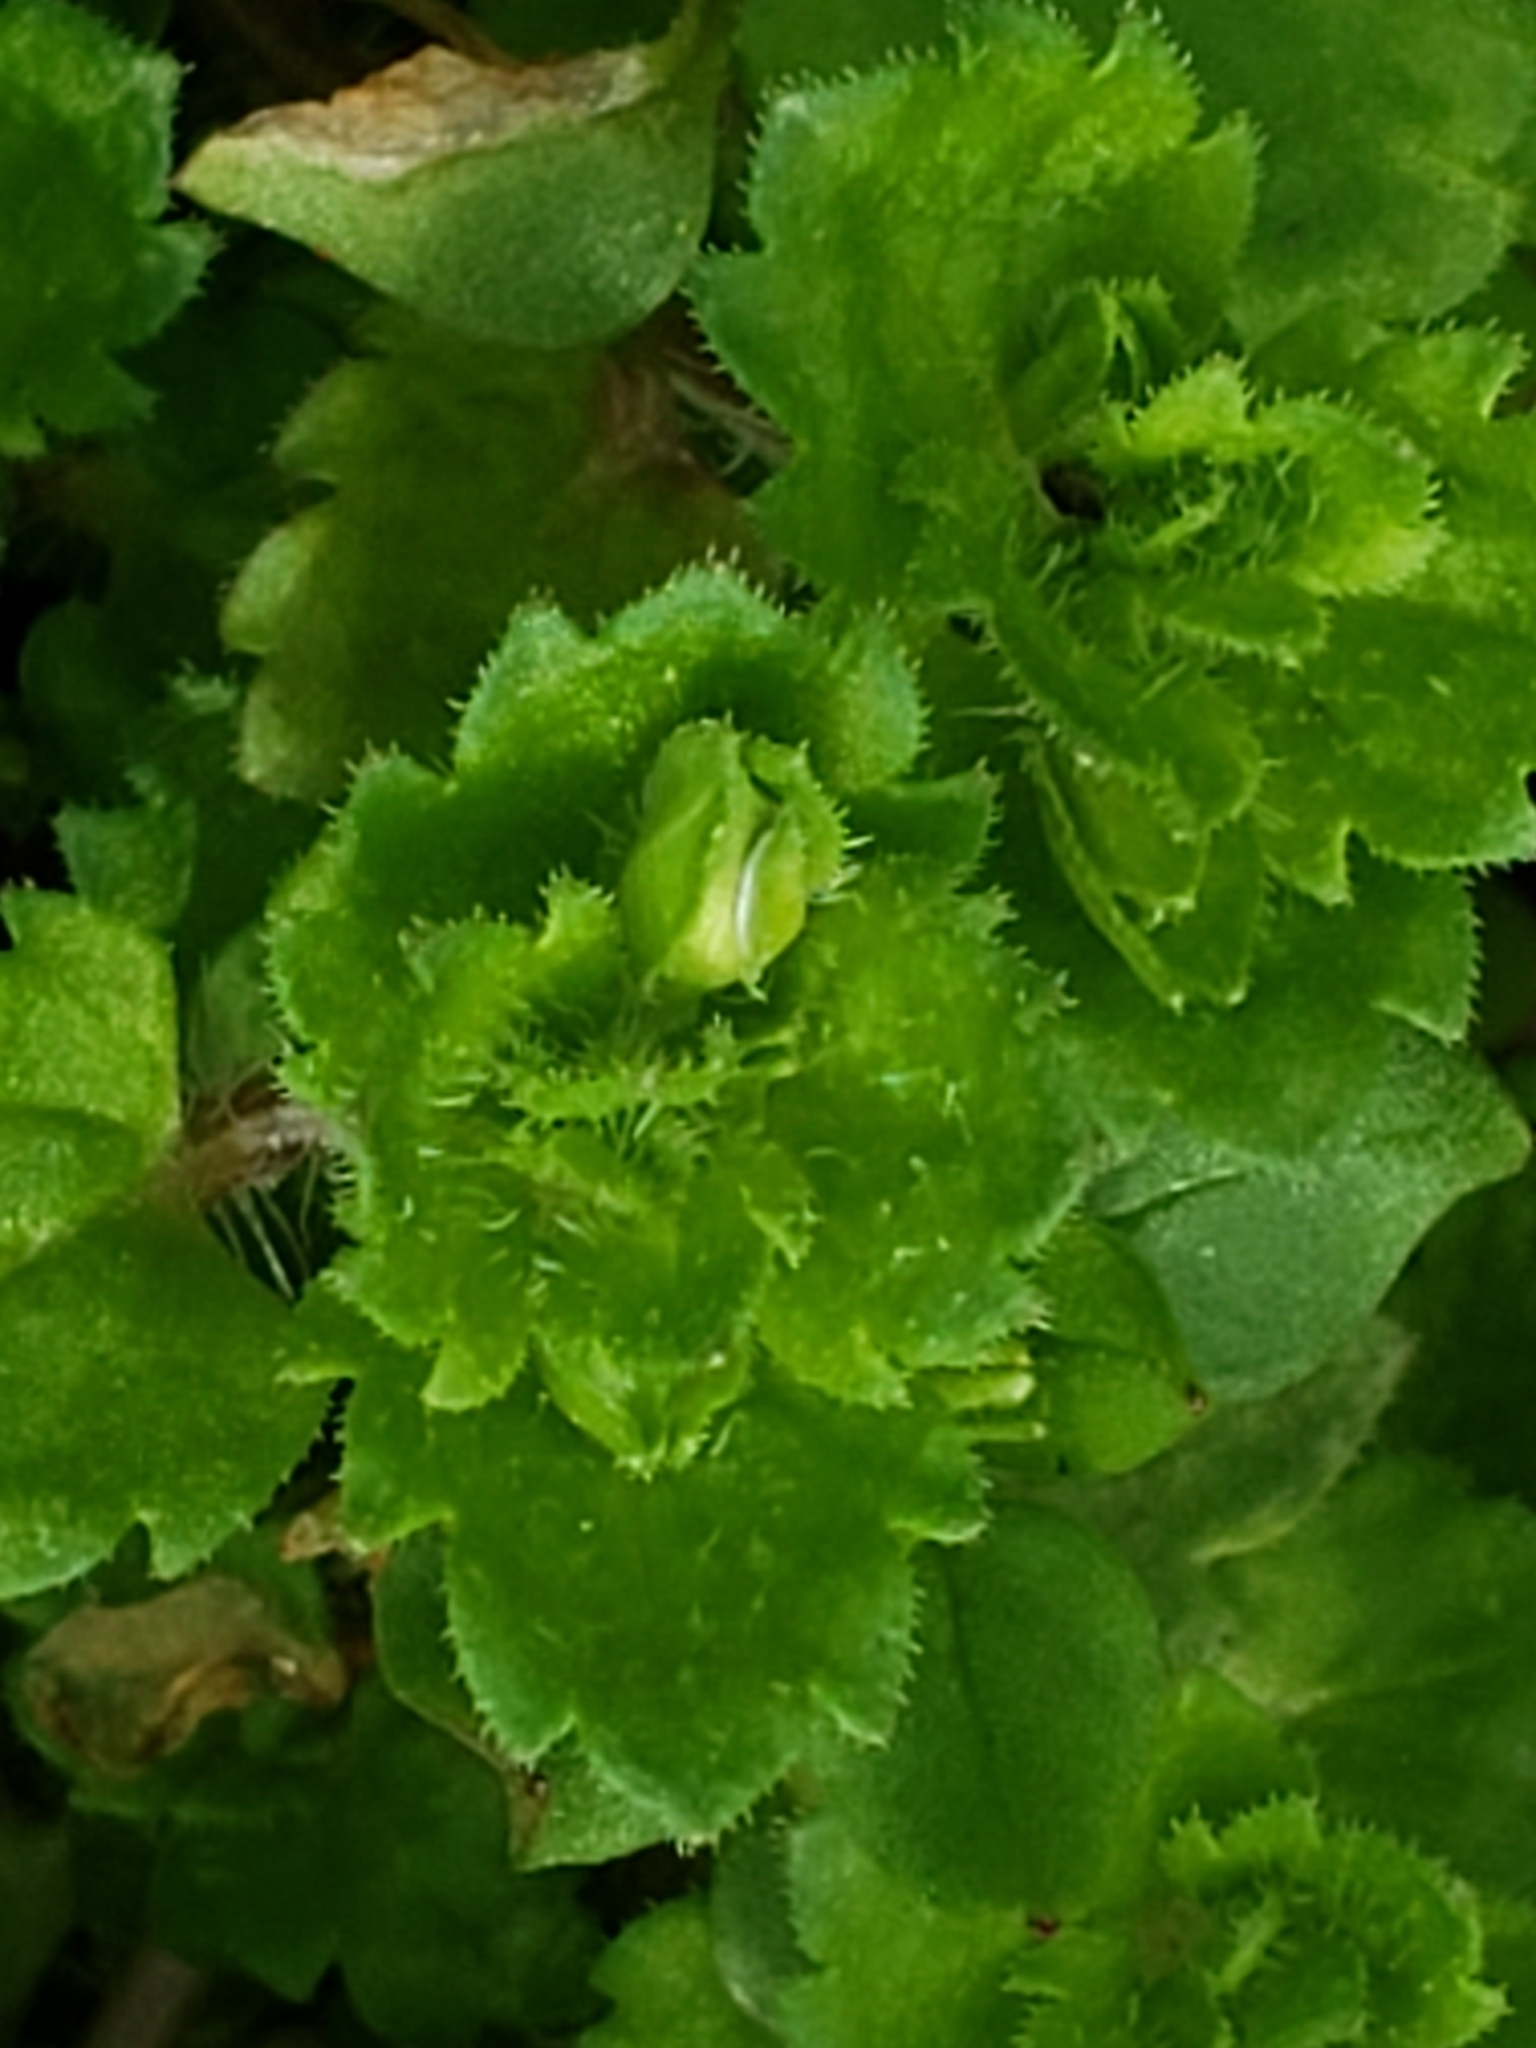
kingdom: Plantae
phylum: Tracheophyta
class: Magnoliopsida
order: Lamiales
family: Plantaginaceae
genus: Veronica
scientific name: Veronica persica
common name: Common field-speedwell
